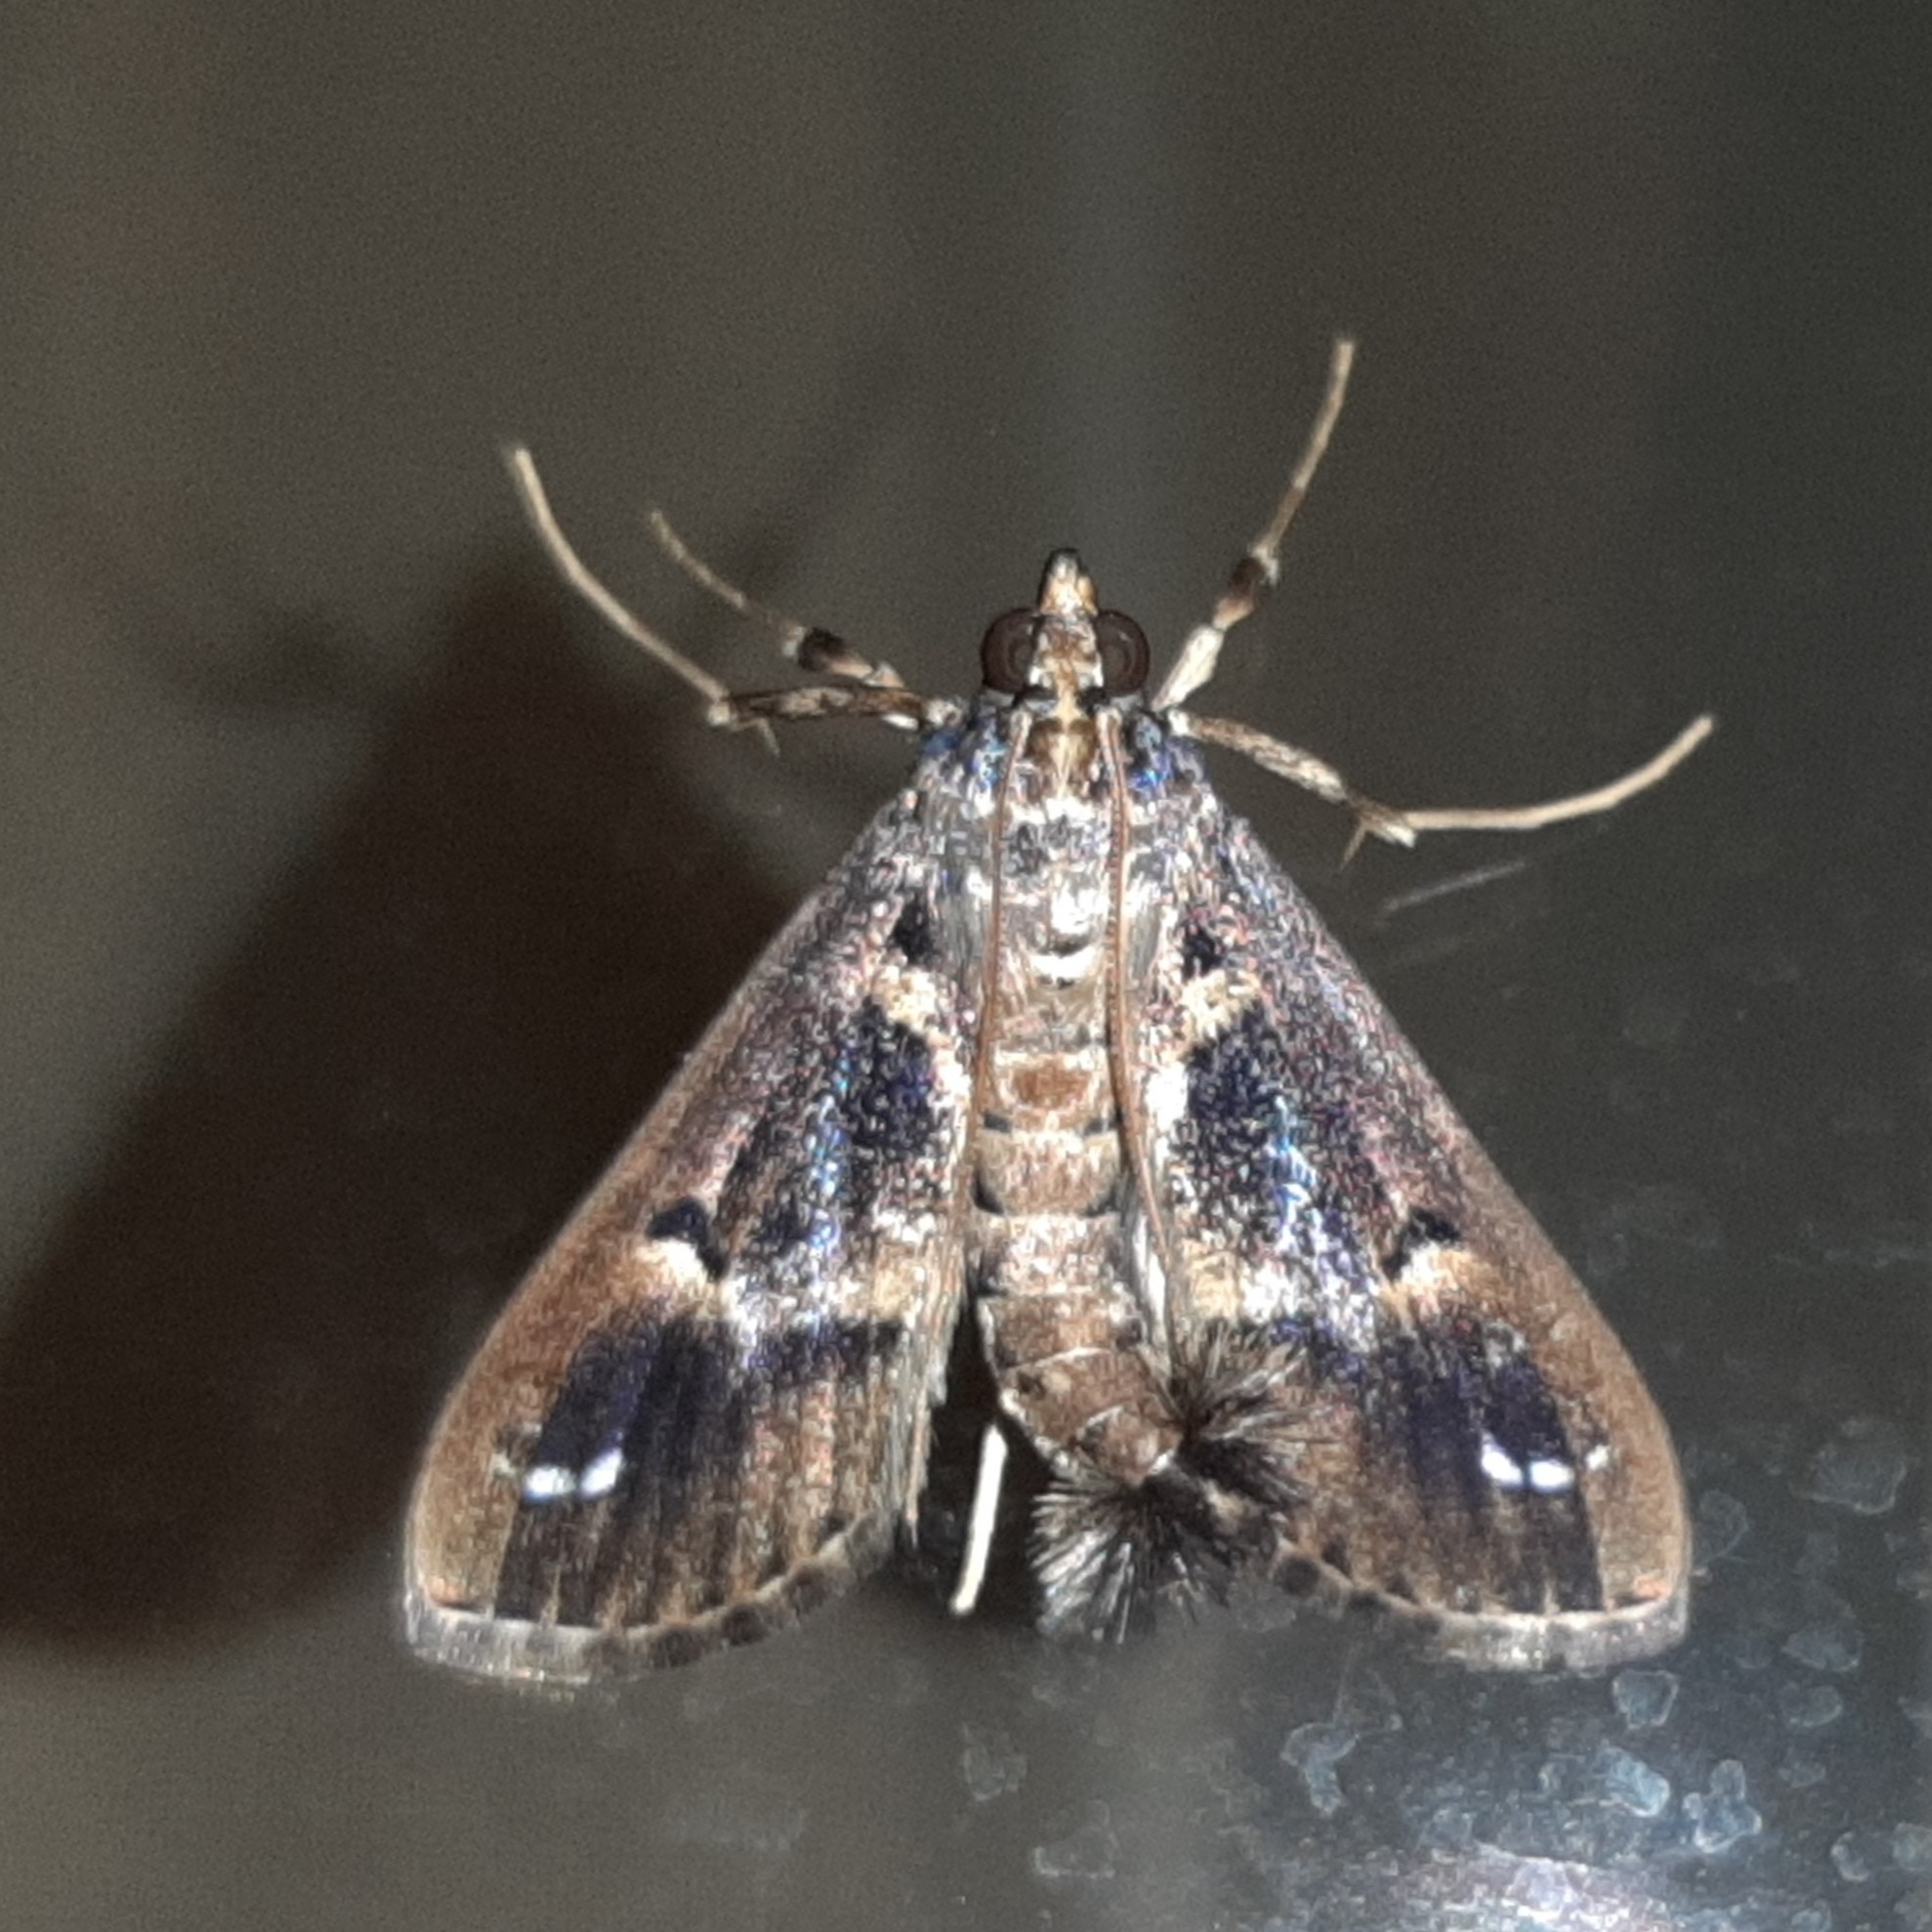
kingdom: Animalia
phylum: Arthropoda
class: Insecta
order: Lepidoptera
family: Crambidae
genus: Diaphania
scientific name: Diaphania costaricalis
